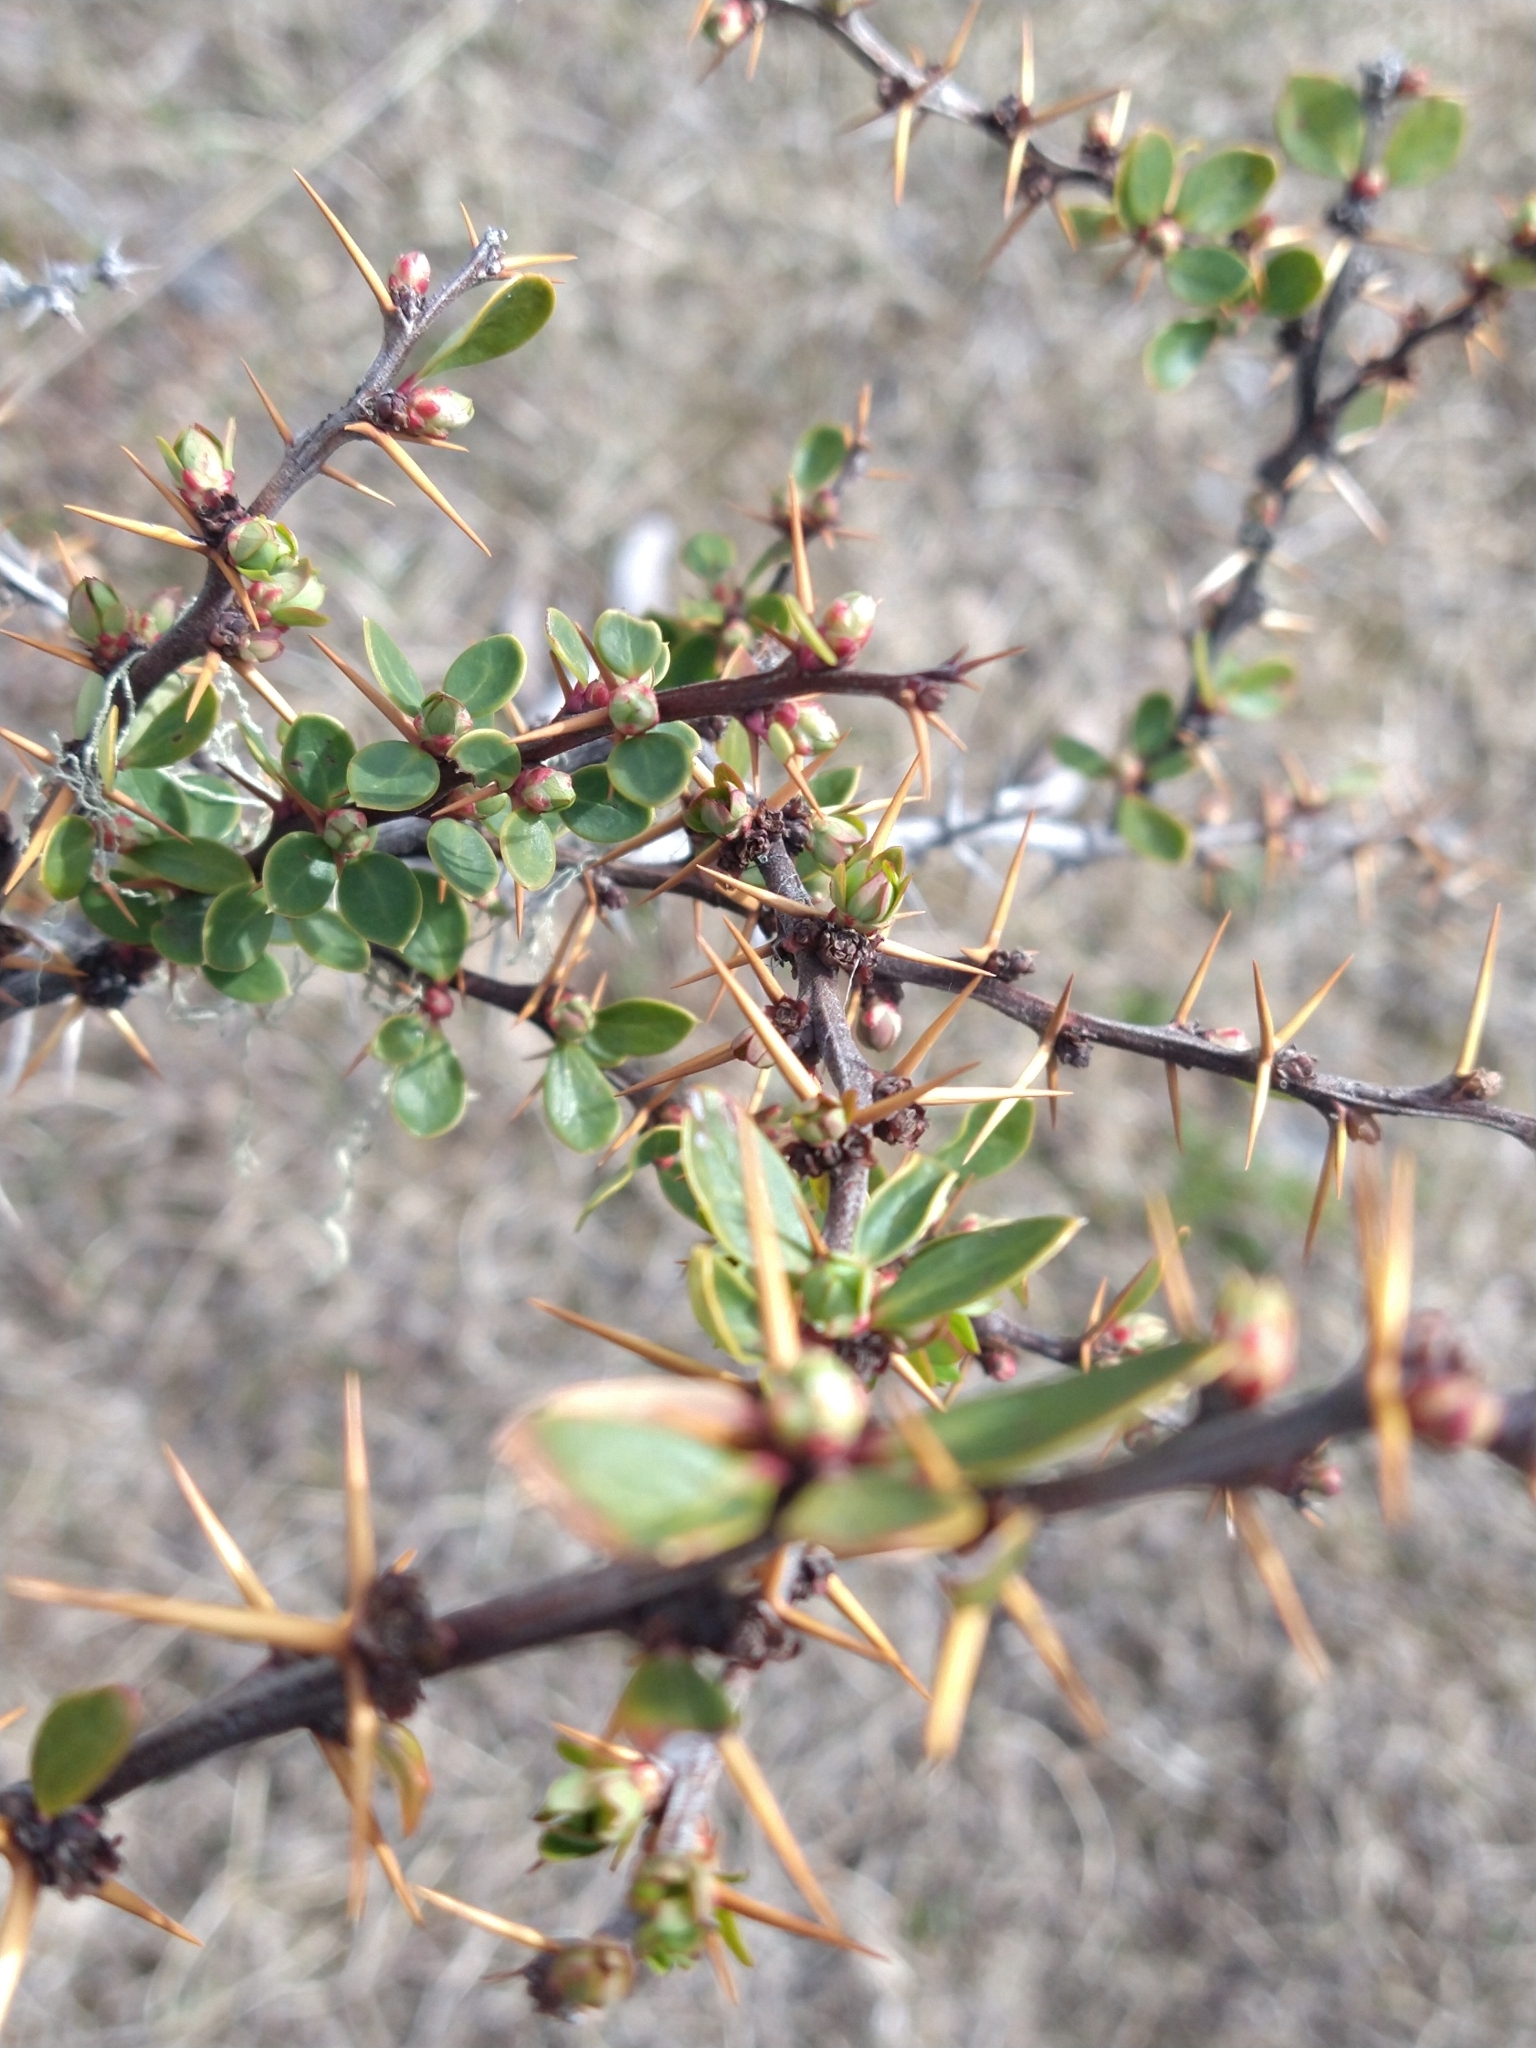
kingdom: Plantae
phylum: Tracheophyta
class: Magnoliopsida
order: Ranunculales
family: Berberidaceae
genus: Berberis
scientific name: Berberis microphylla
